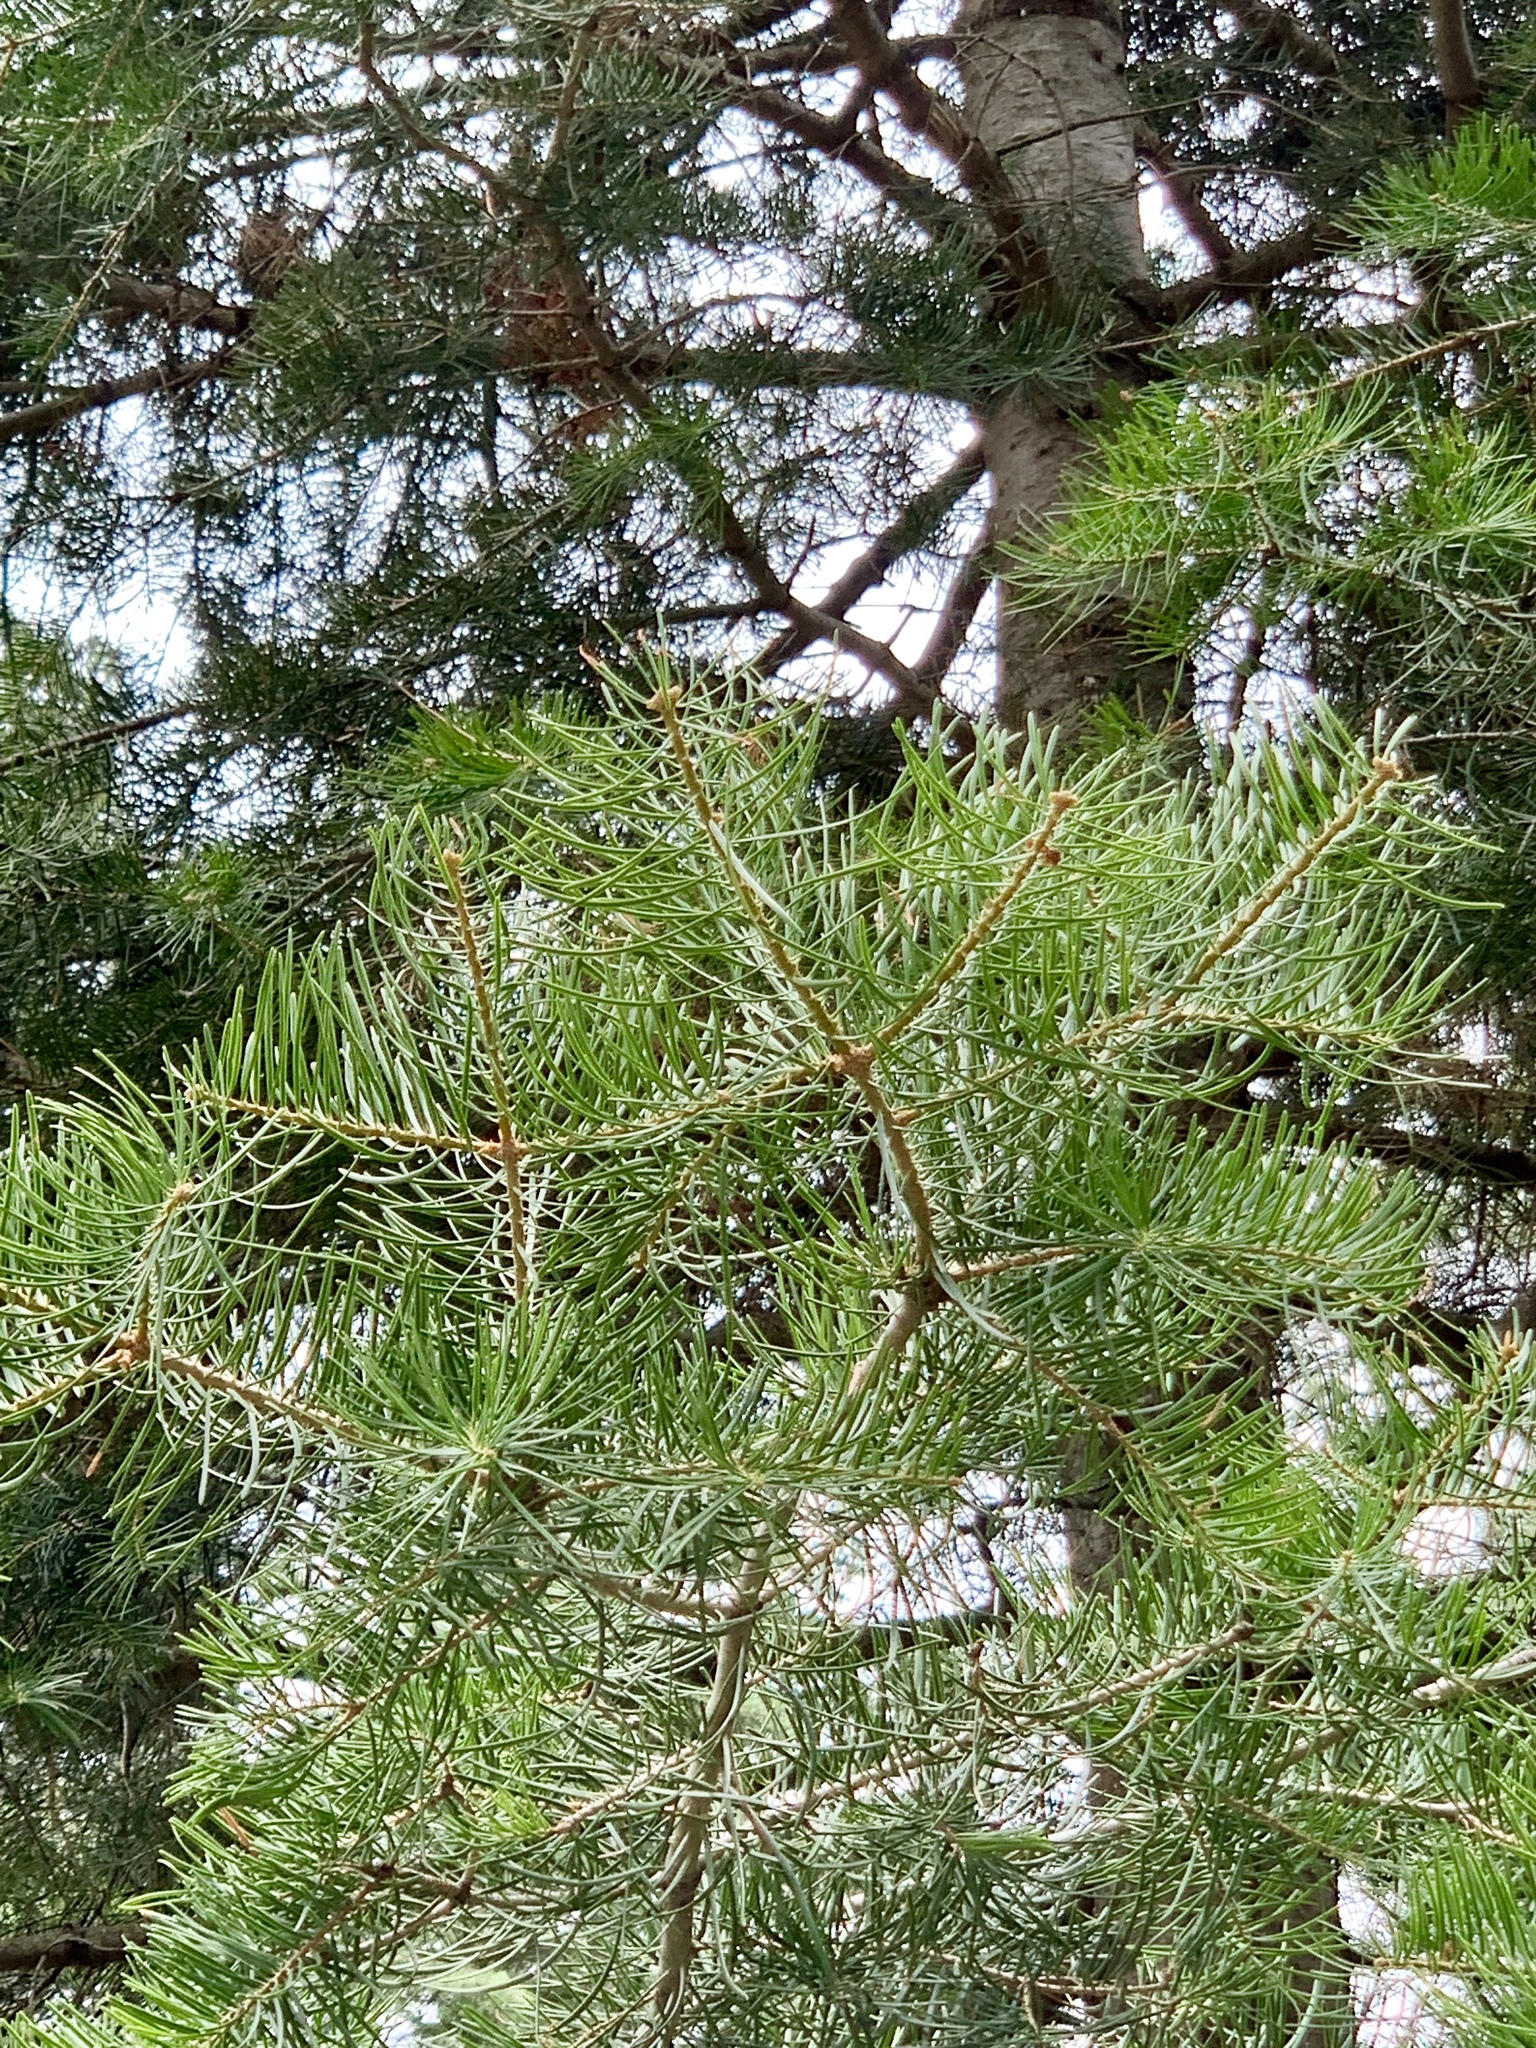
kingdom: Plantae
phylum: Tracheophyta
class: Pinopsida
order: Pinales
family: Pinaceae
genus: Abies
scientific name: Abies concolor
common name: Colorado fir
